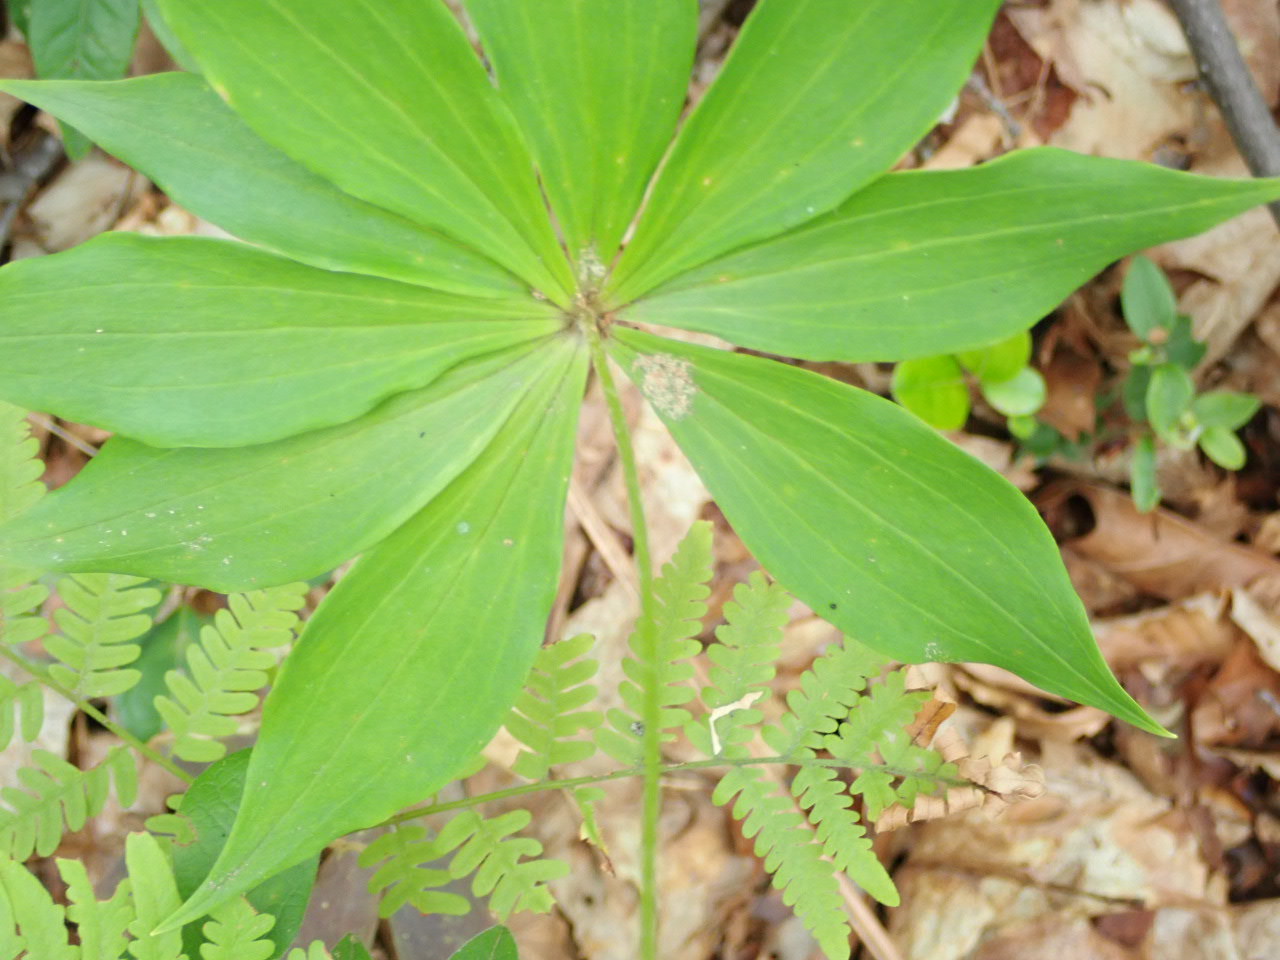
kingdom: Plantae
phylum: Tracheophyta
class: Liliopsida
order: Liliales
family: Liliaceae
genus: Medeola
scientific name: Medeola virginiana
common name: Indian cucumber-root
